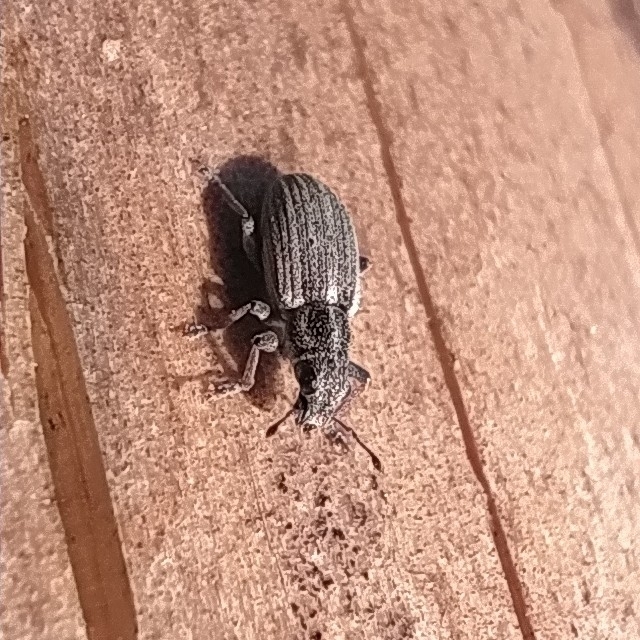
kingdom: Animalia
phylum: Arthropoda
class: Insecta
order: Coleoptera
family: Curculionidae
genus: Sitona
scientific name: Sitona ambiguus
